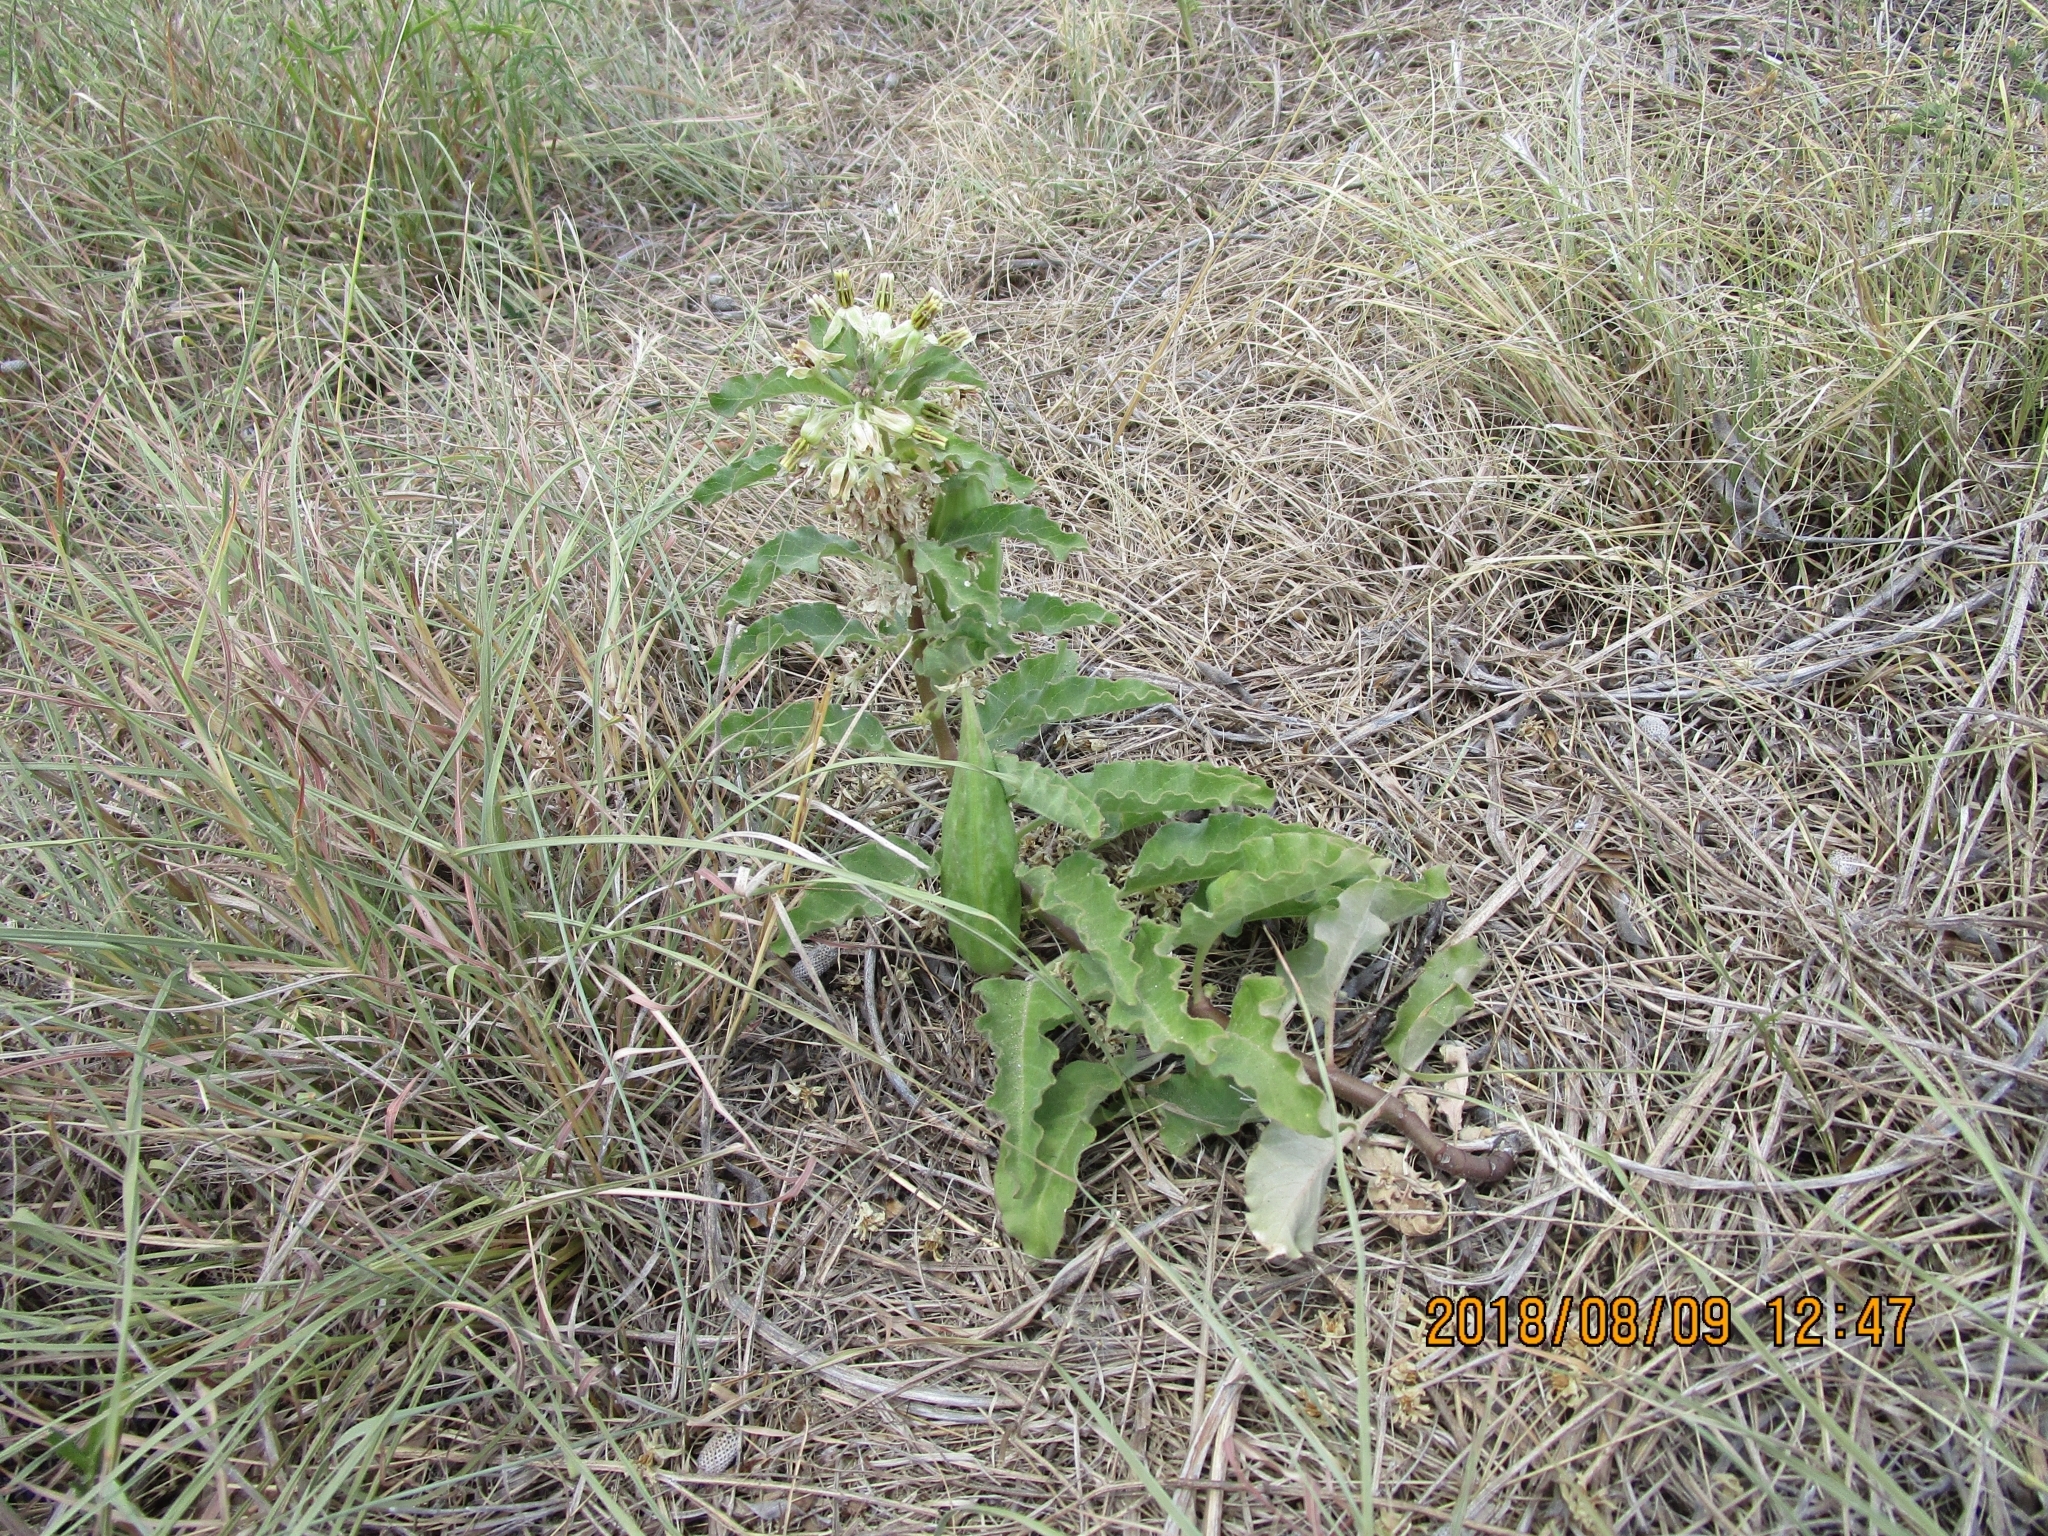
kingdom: Plantae
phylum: Tracheophyta
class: Magnoliopsida
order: Gentianales
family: Apocynaceae
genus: Asclepias
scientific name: Asclepias oenotheroides
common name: Zizotes milkweed
